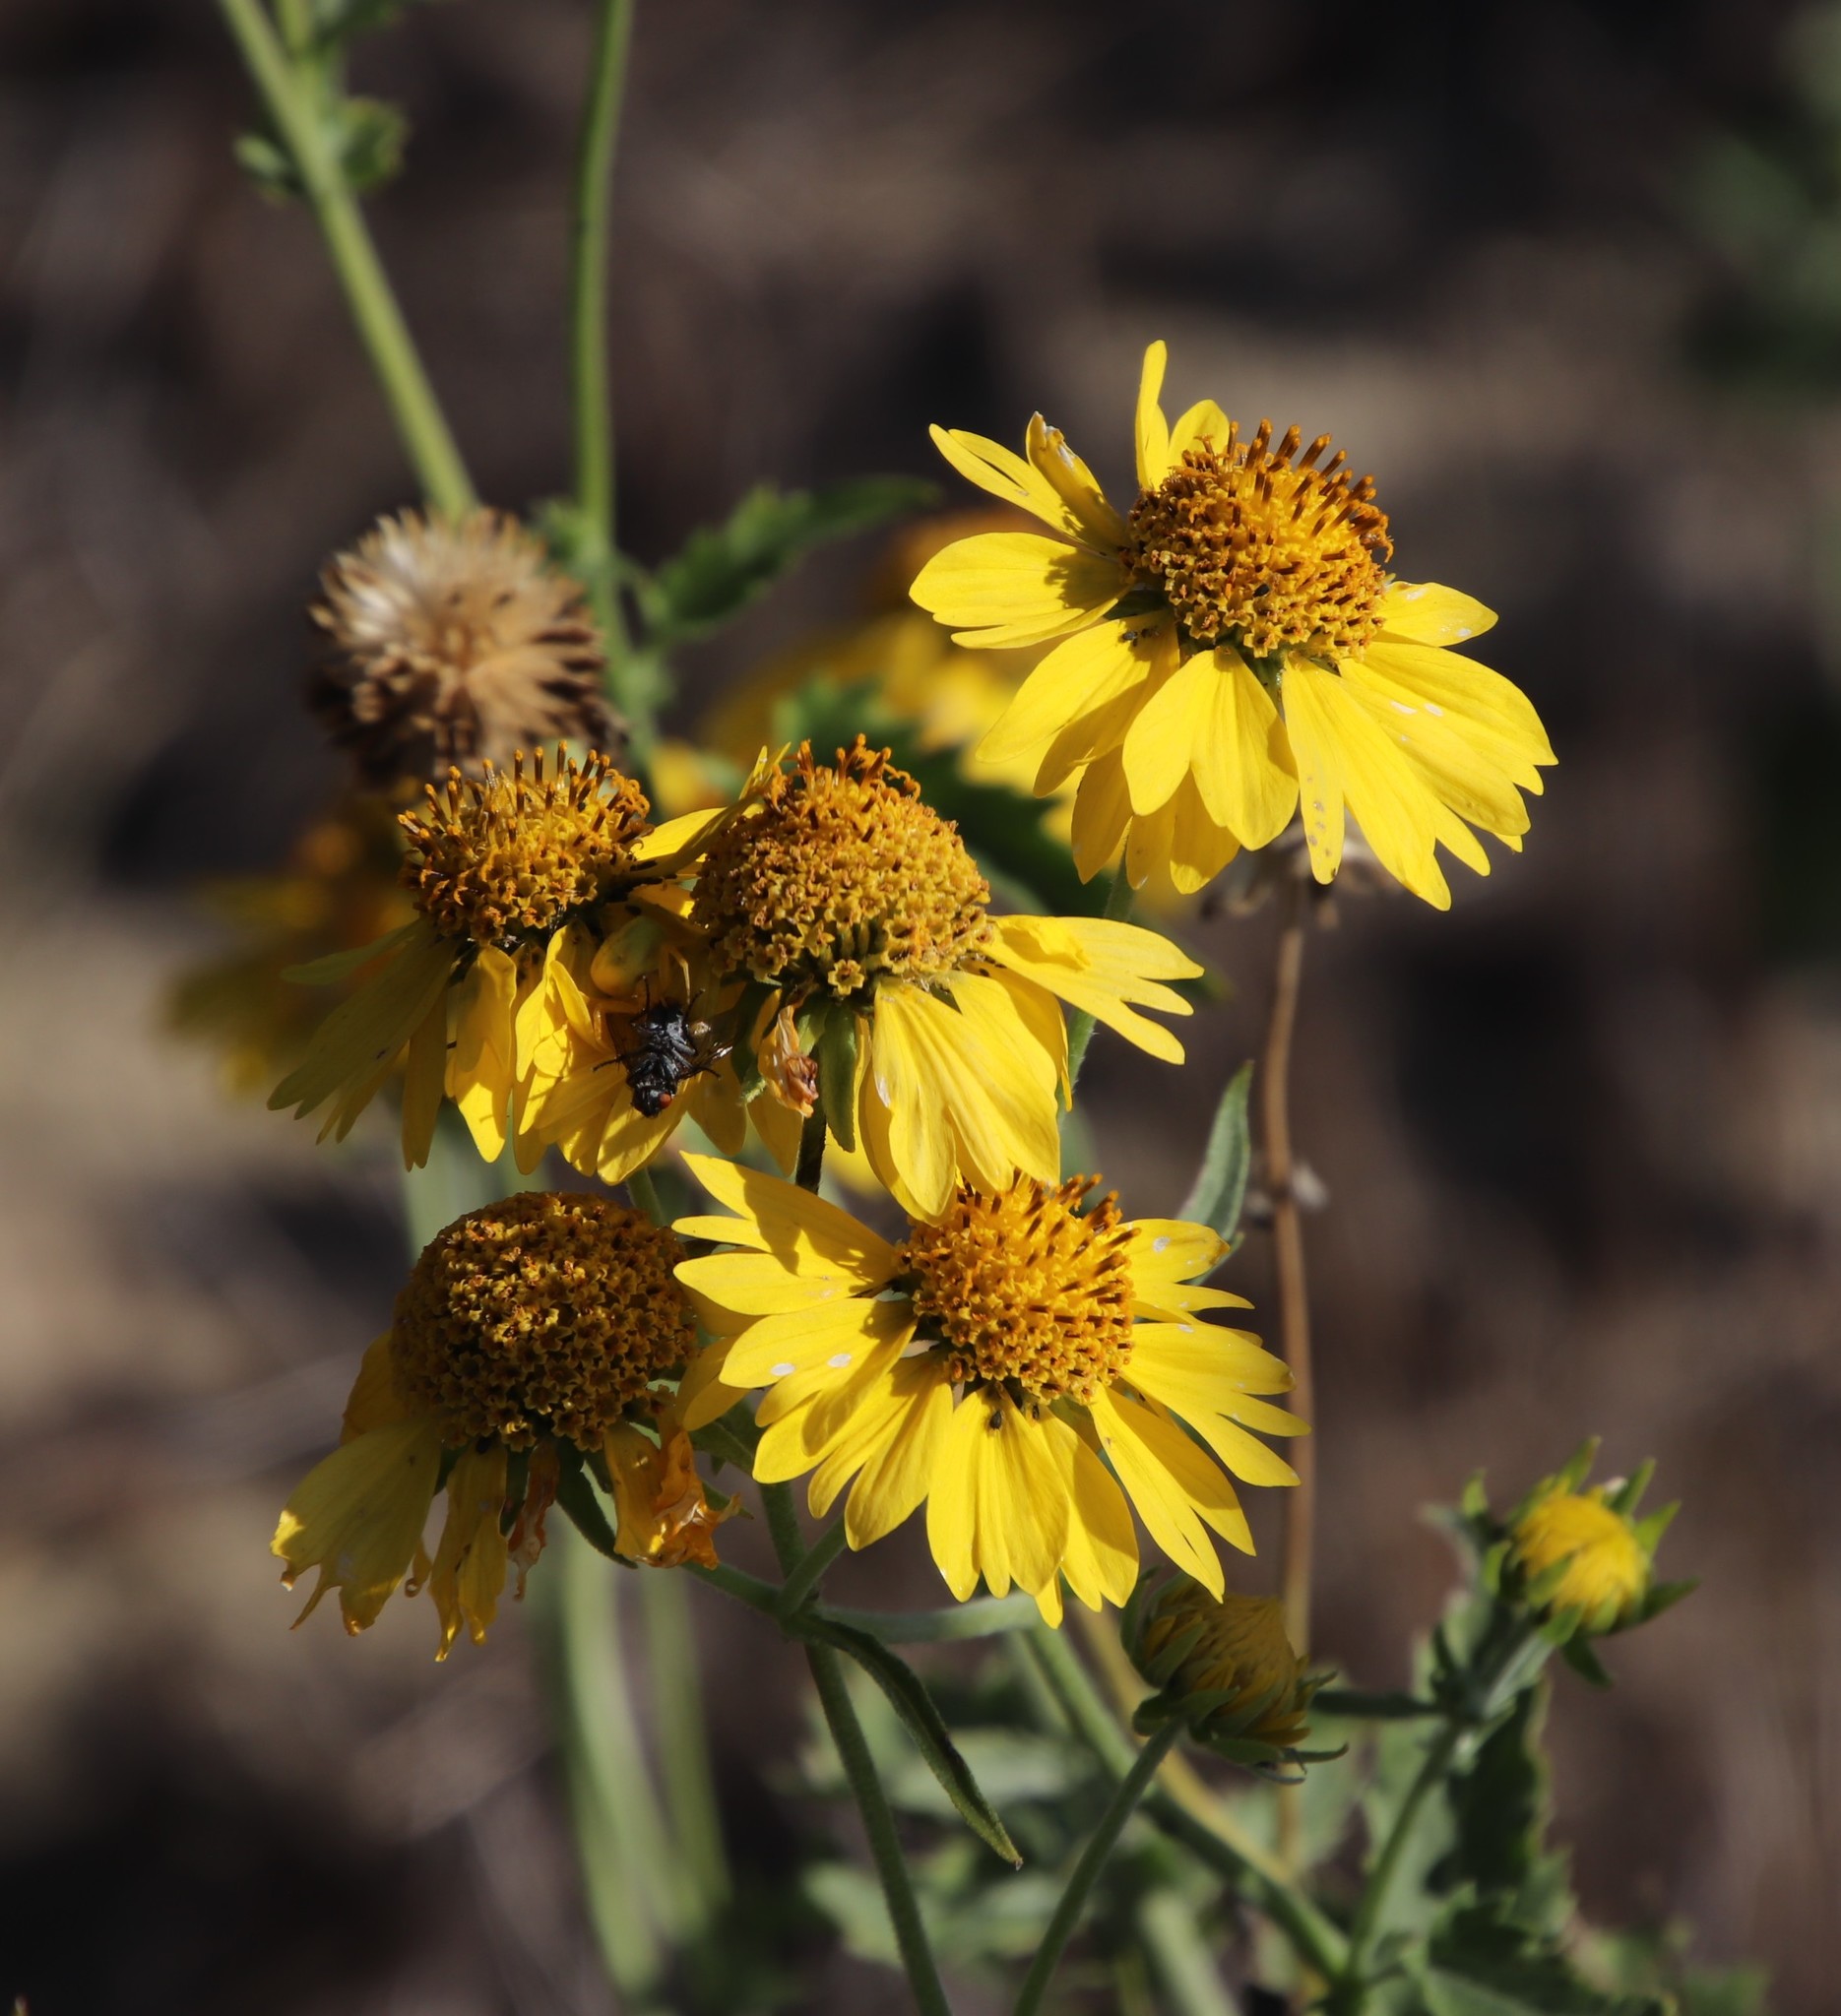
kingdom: Plantae
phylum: Tracheophyta
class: Magnoliopsida
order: Asterales
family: Asteraceae
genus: Verbesina
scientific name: Verbesina encelioides
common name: Golden crownbeard
